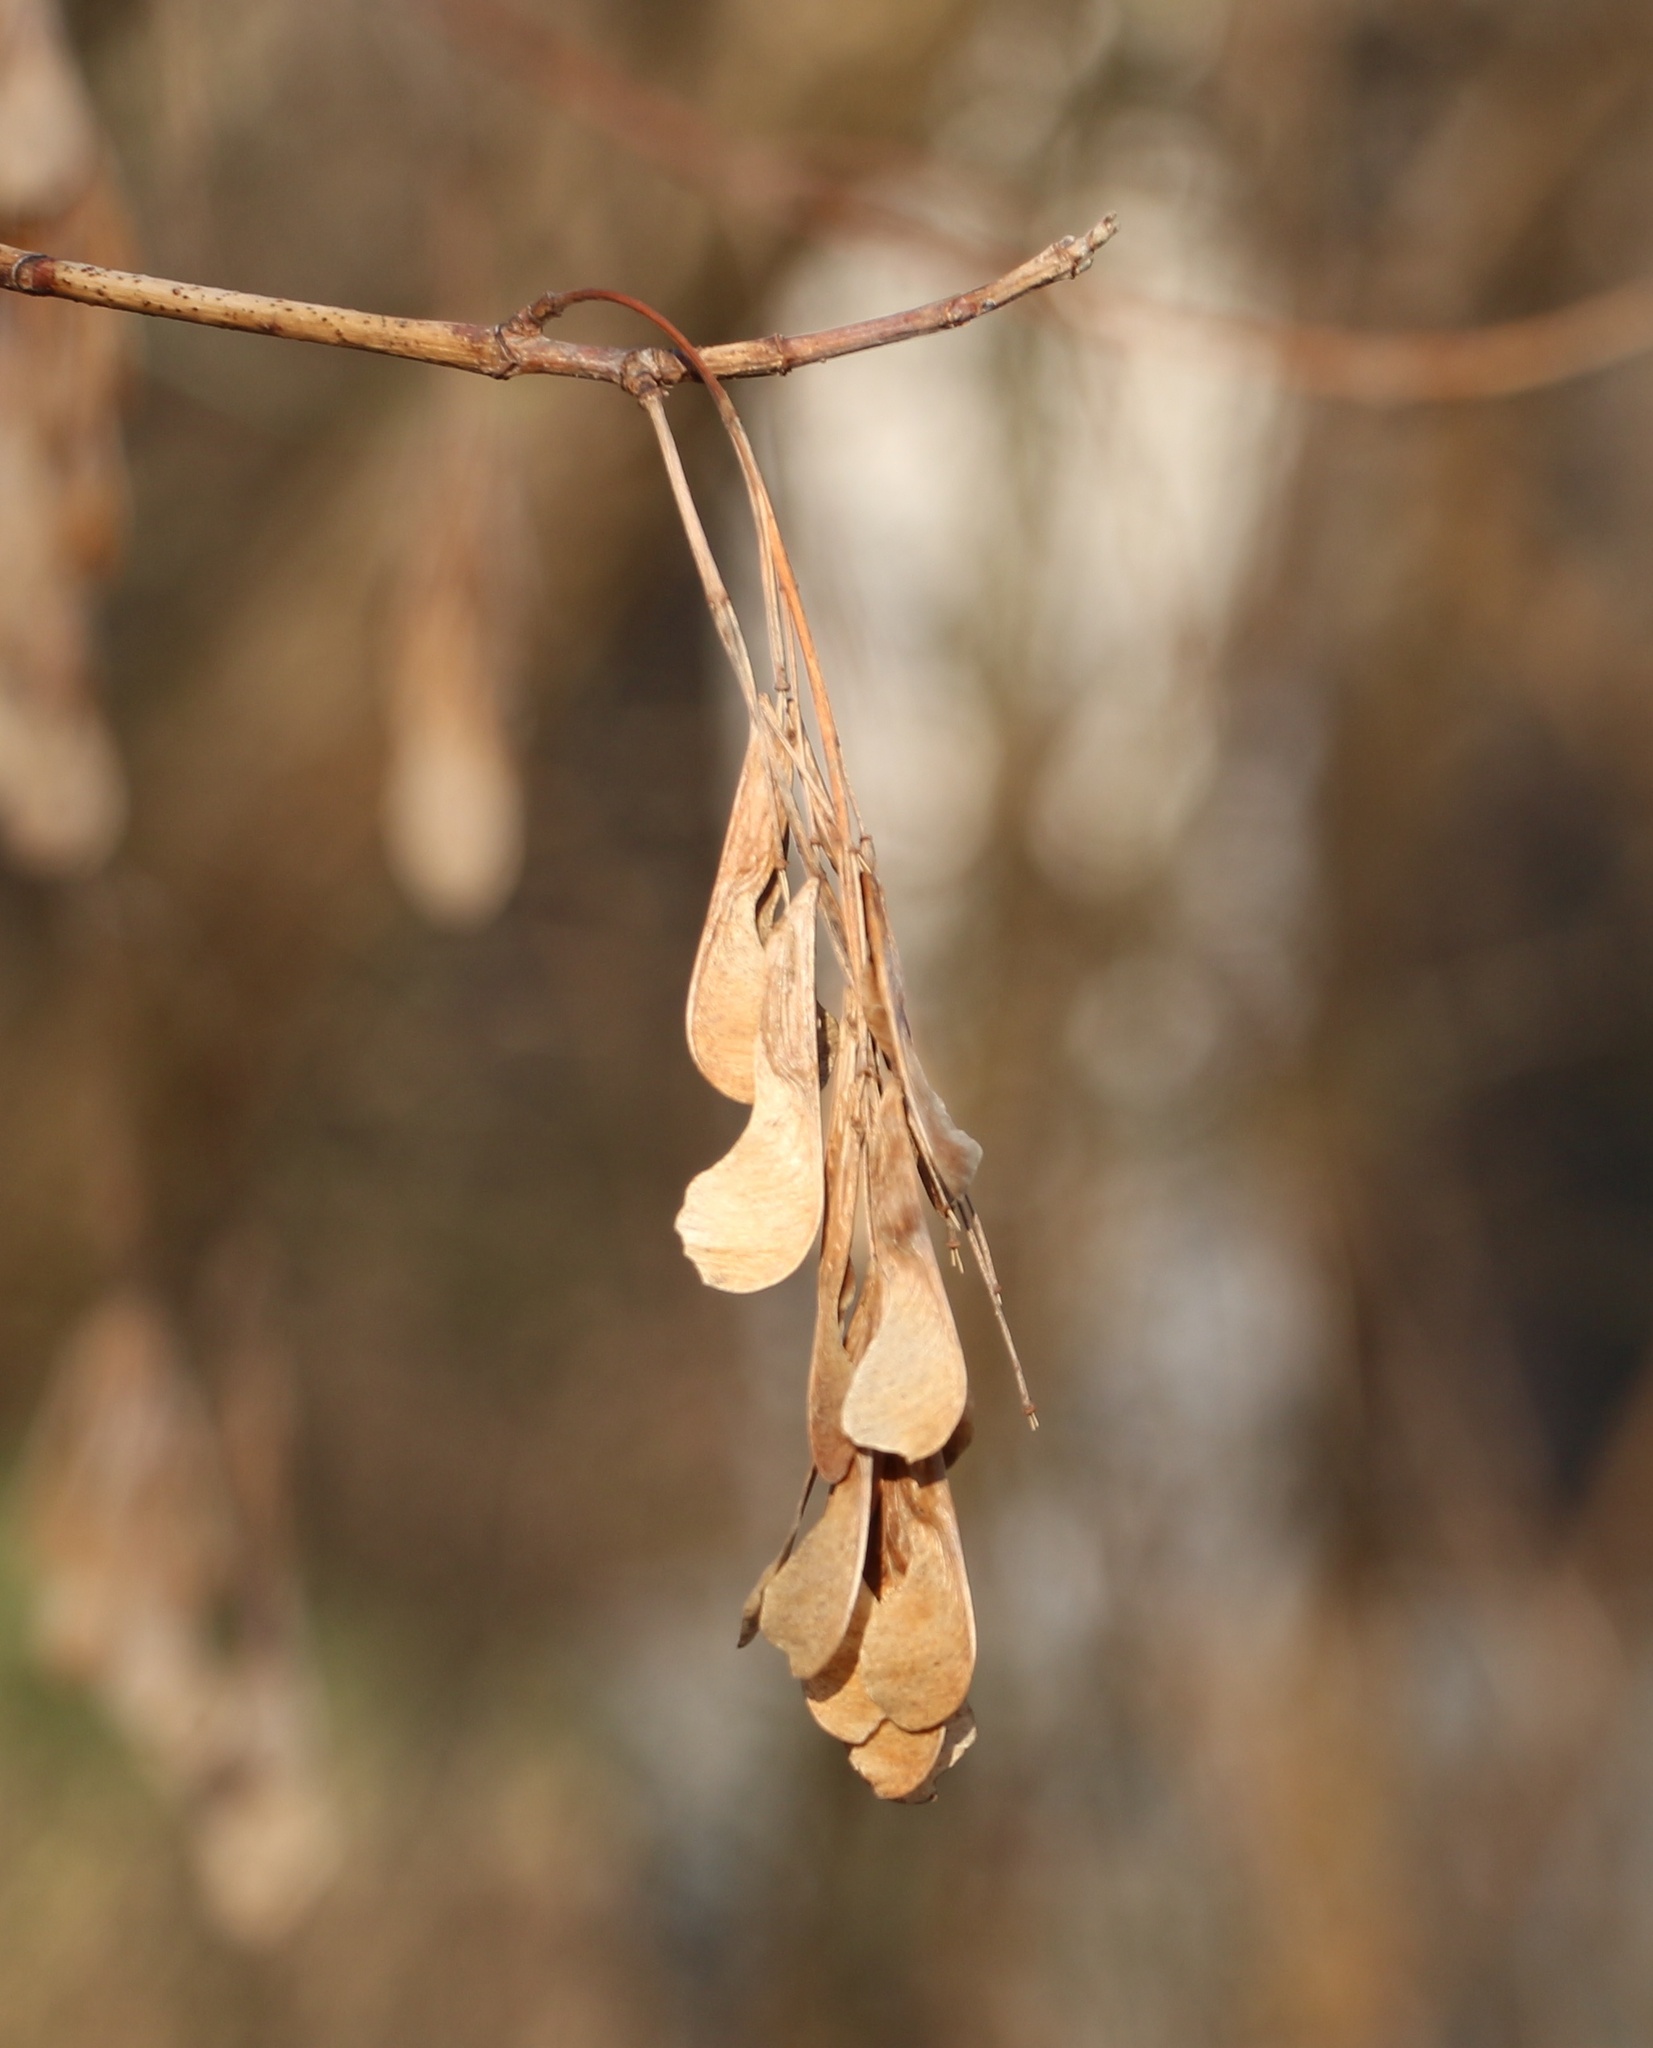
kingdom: Plantae
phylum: Tracheophyta
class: Magnoliopsida
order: Sapindales
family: Sapindaceae
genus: Acer
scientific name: Acer negundo
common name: Ashleaf maple
